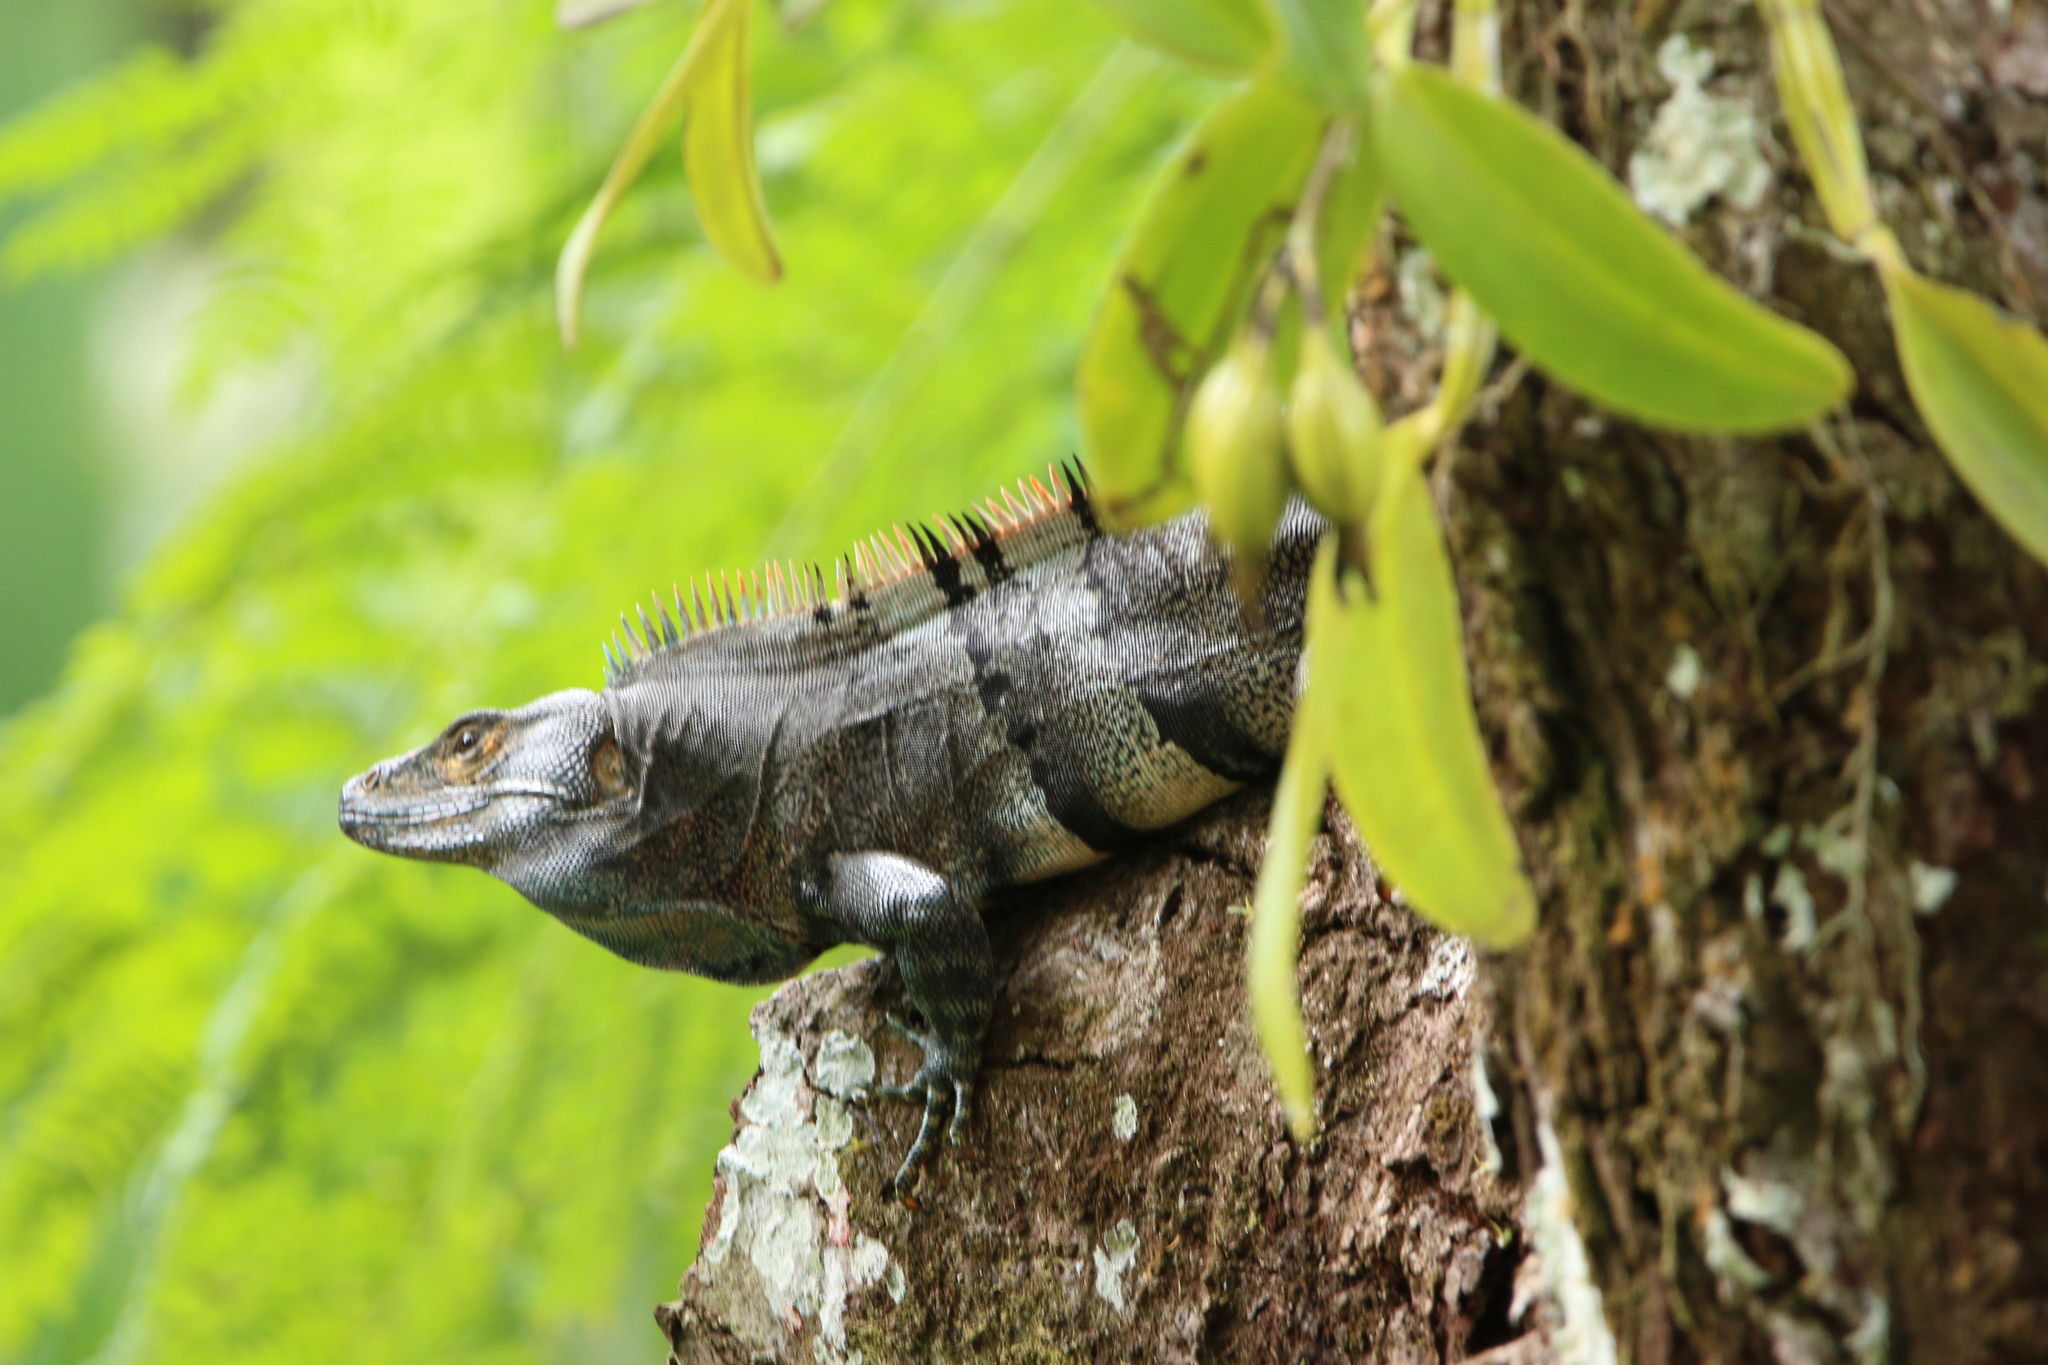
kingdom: Animalia
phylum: Chordata
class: Squamata
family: Iguanidae
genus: Ctenosaura
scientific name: Ctenosaura similis
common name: Black spiny-tailed iguana
